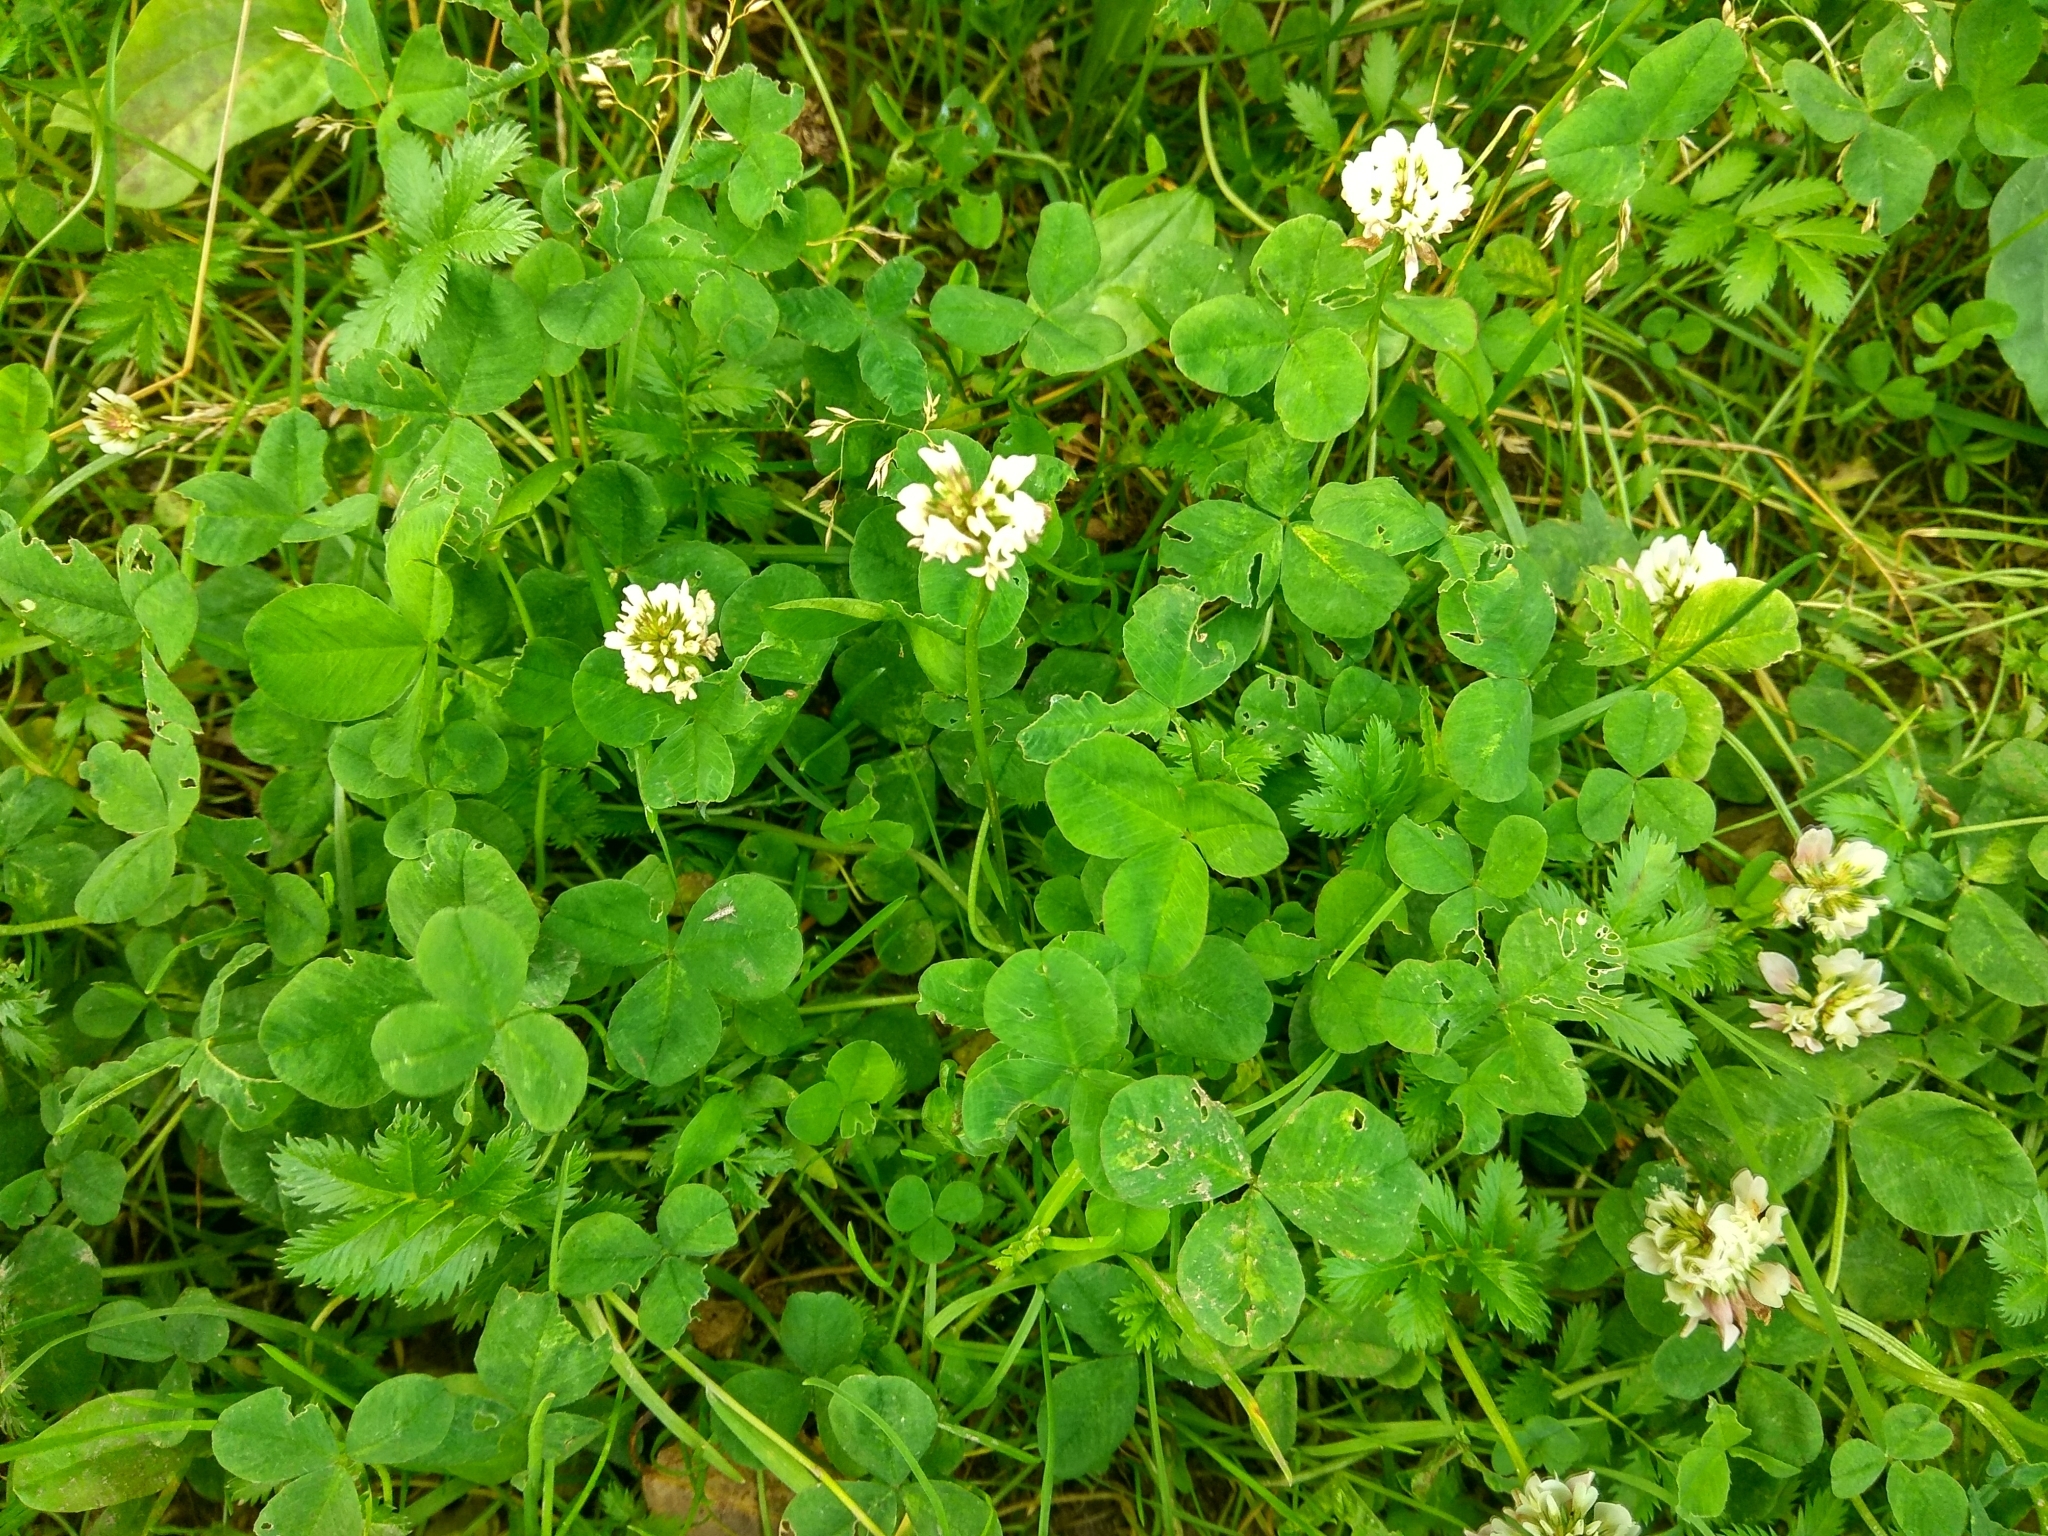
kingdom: Plantae
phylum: Tracheophyta
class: Magnoliopsida
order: Fabales
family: Fabaceae
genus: Trifolium
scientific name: Trifolium repens
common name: White clover
